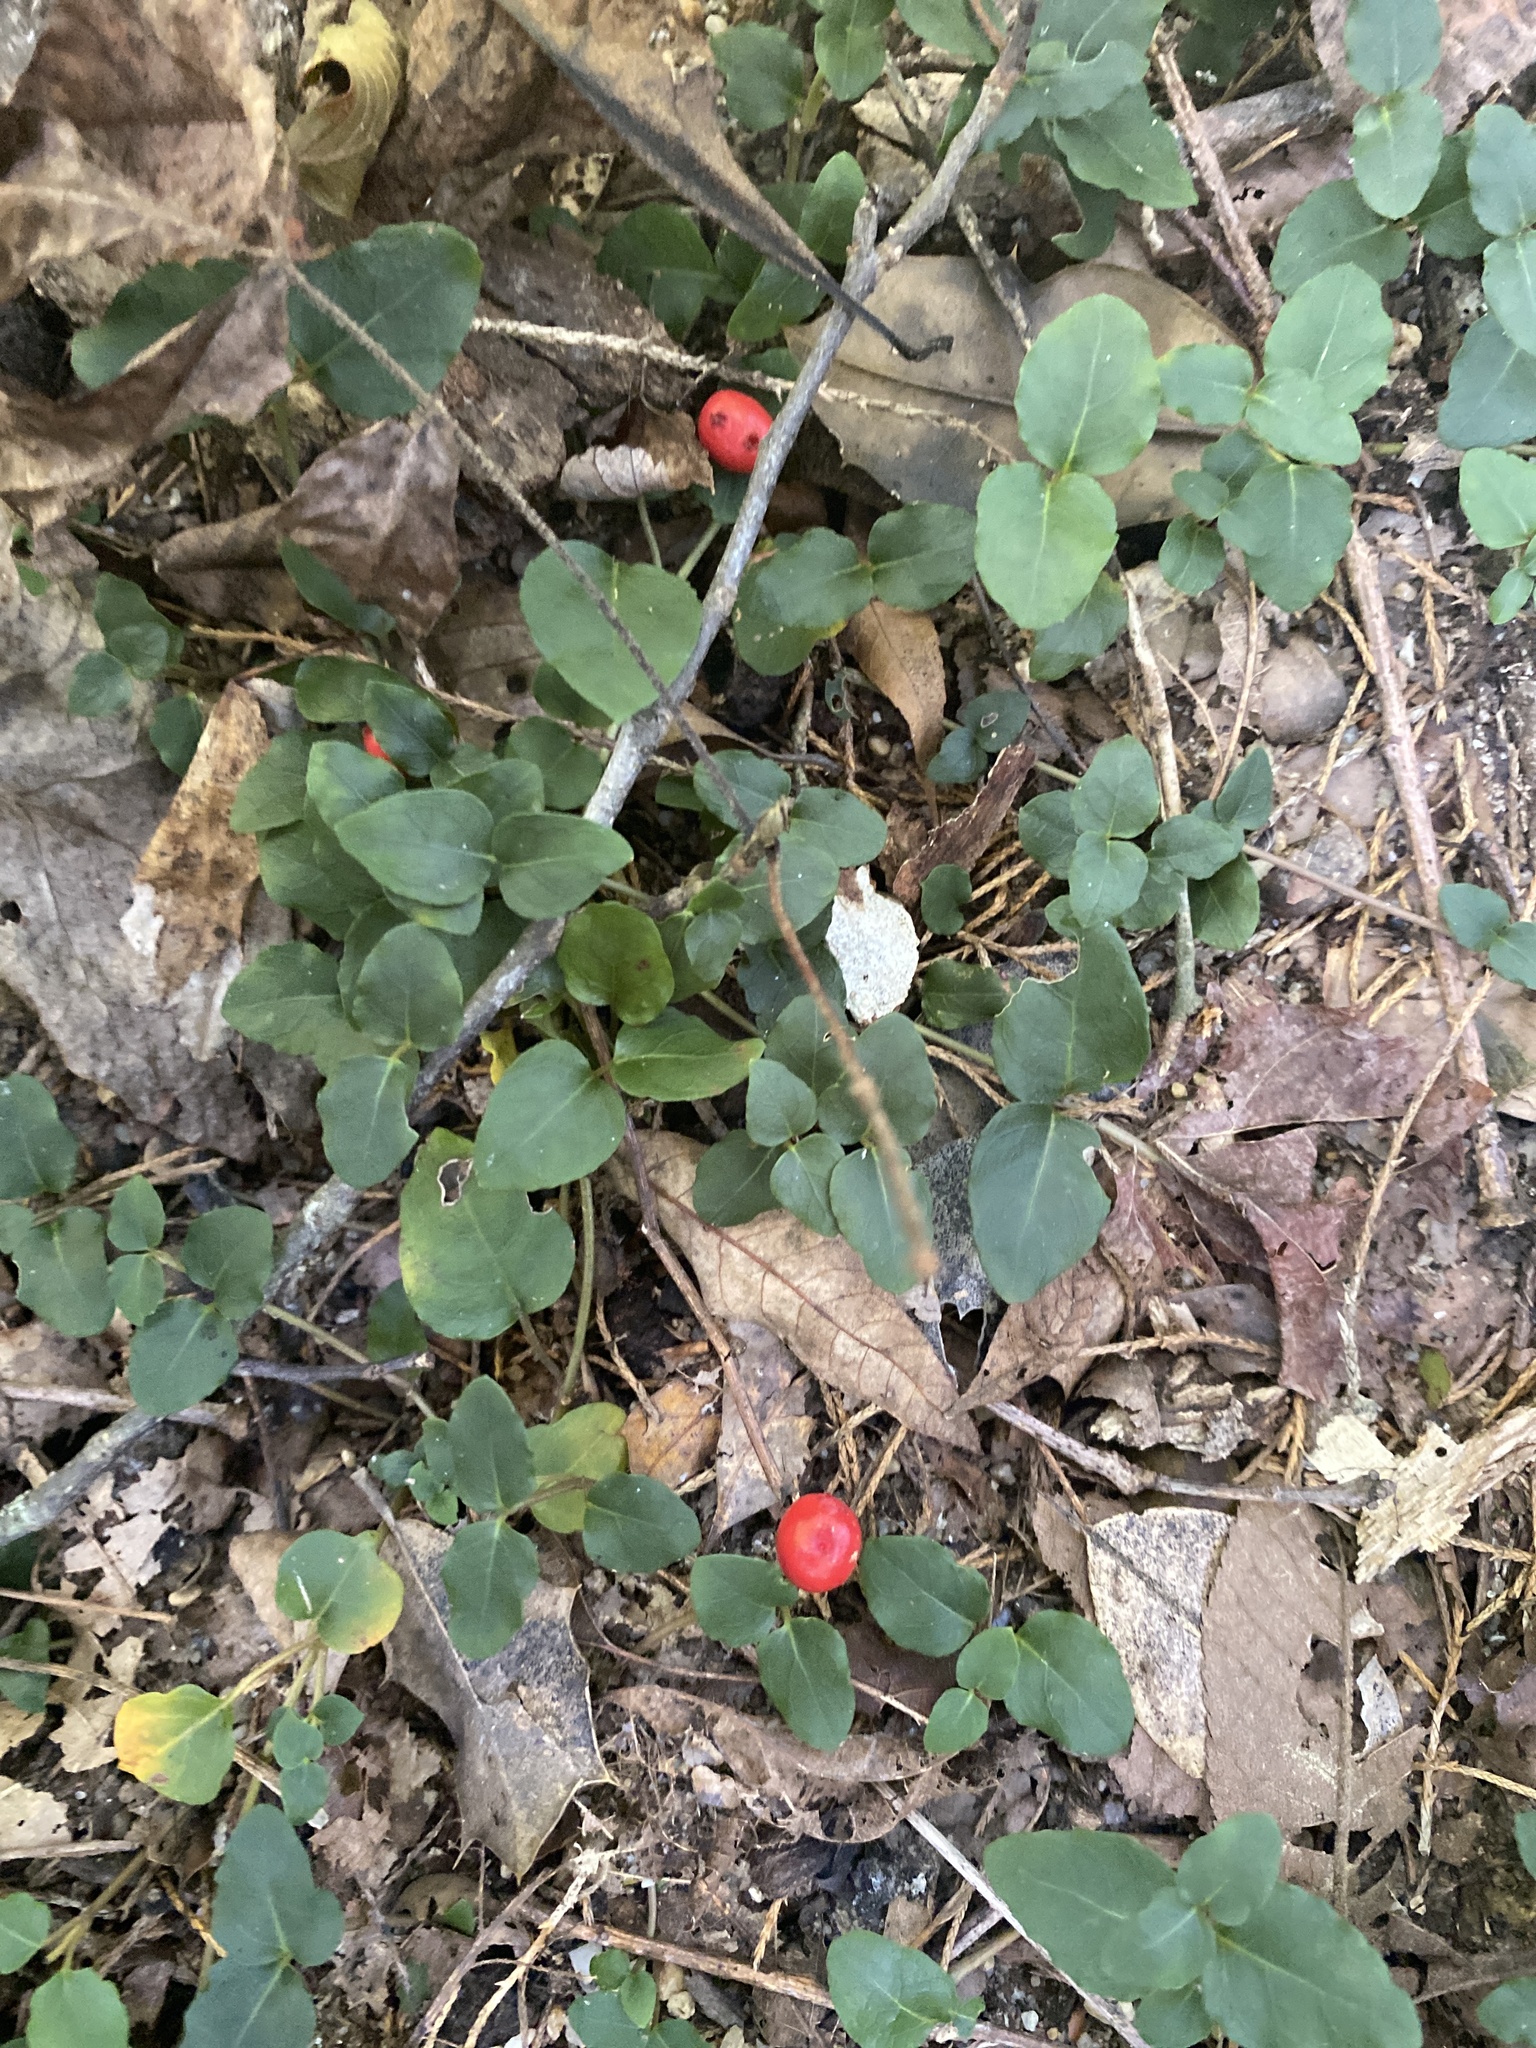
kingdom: Plantae
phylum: Tracheophyta
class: Magnoliopsida
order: Gentianales
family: Rubiaceae
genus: Mitchella
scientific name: Mitchella repens
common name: Partridge-berry
